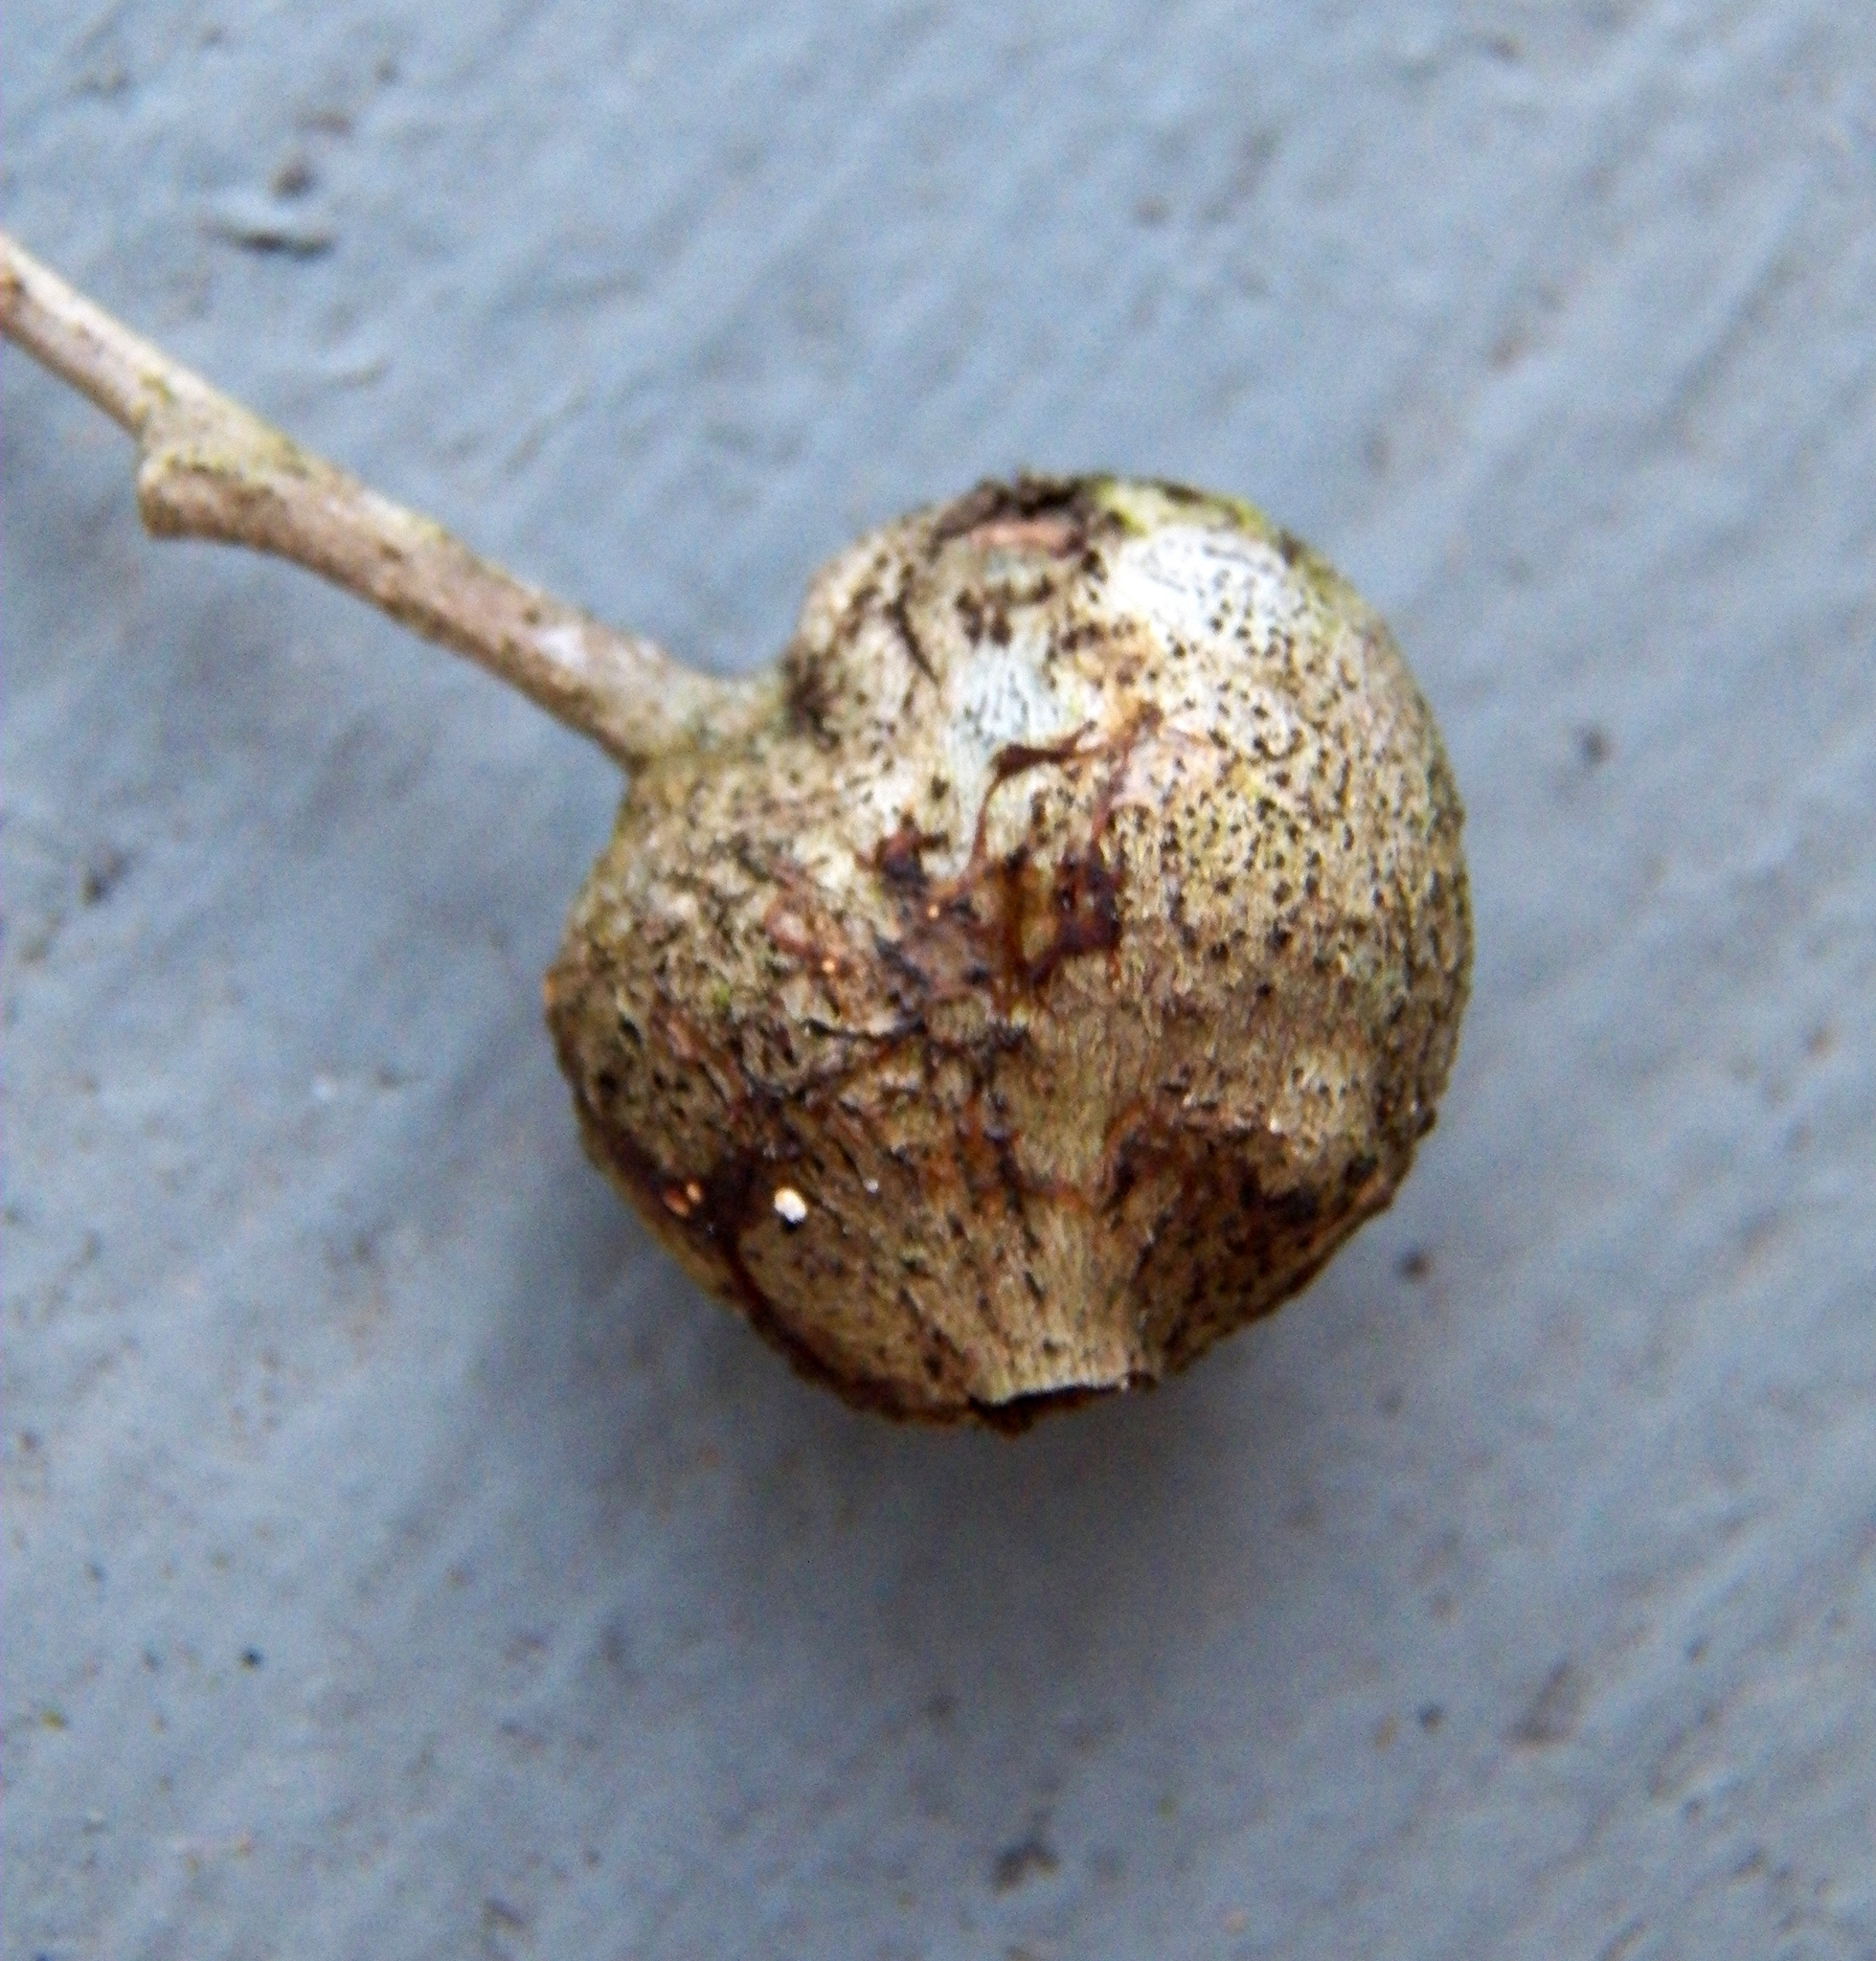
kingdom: Animalia
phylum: Arthropoda
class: Insecta
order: Hymenoptera
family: Cynipidae
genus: Callirhytis
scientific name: Callirhytis
